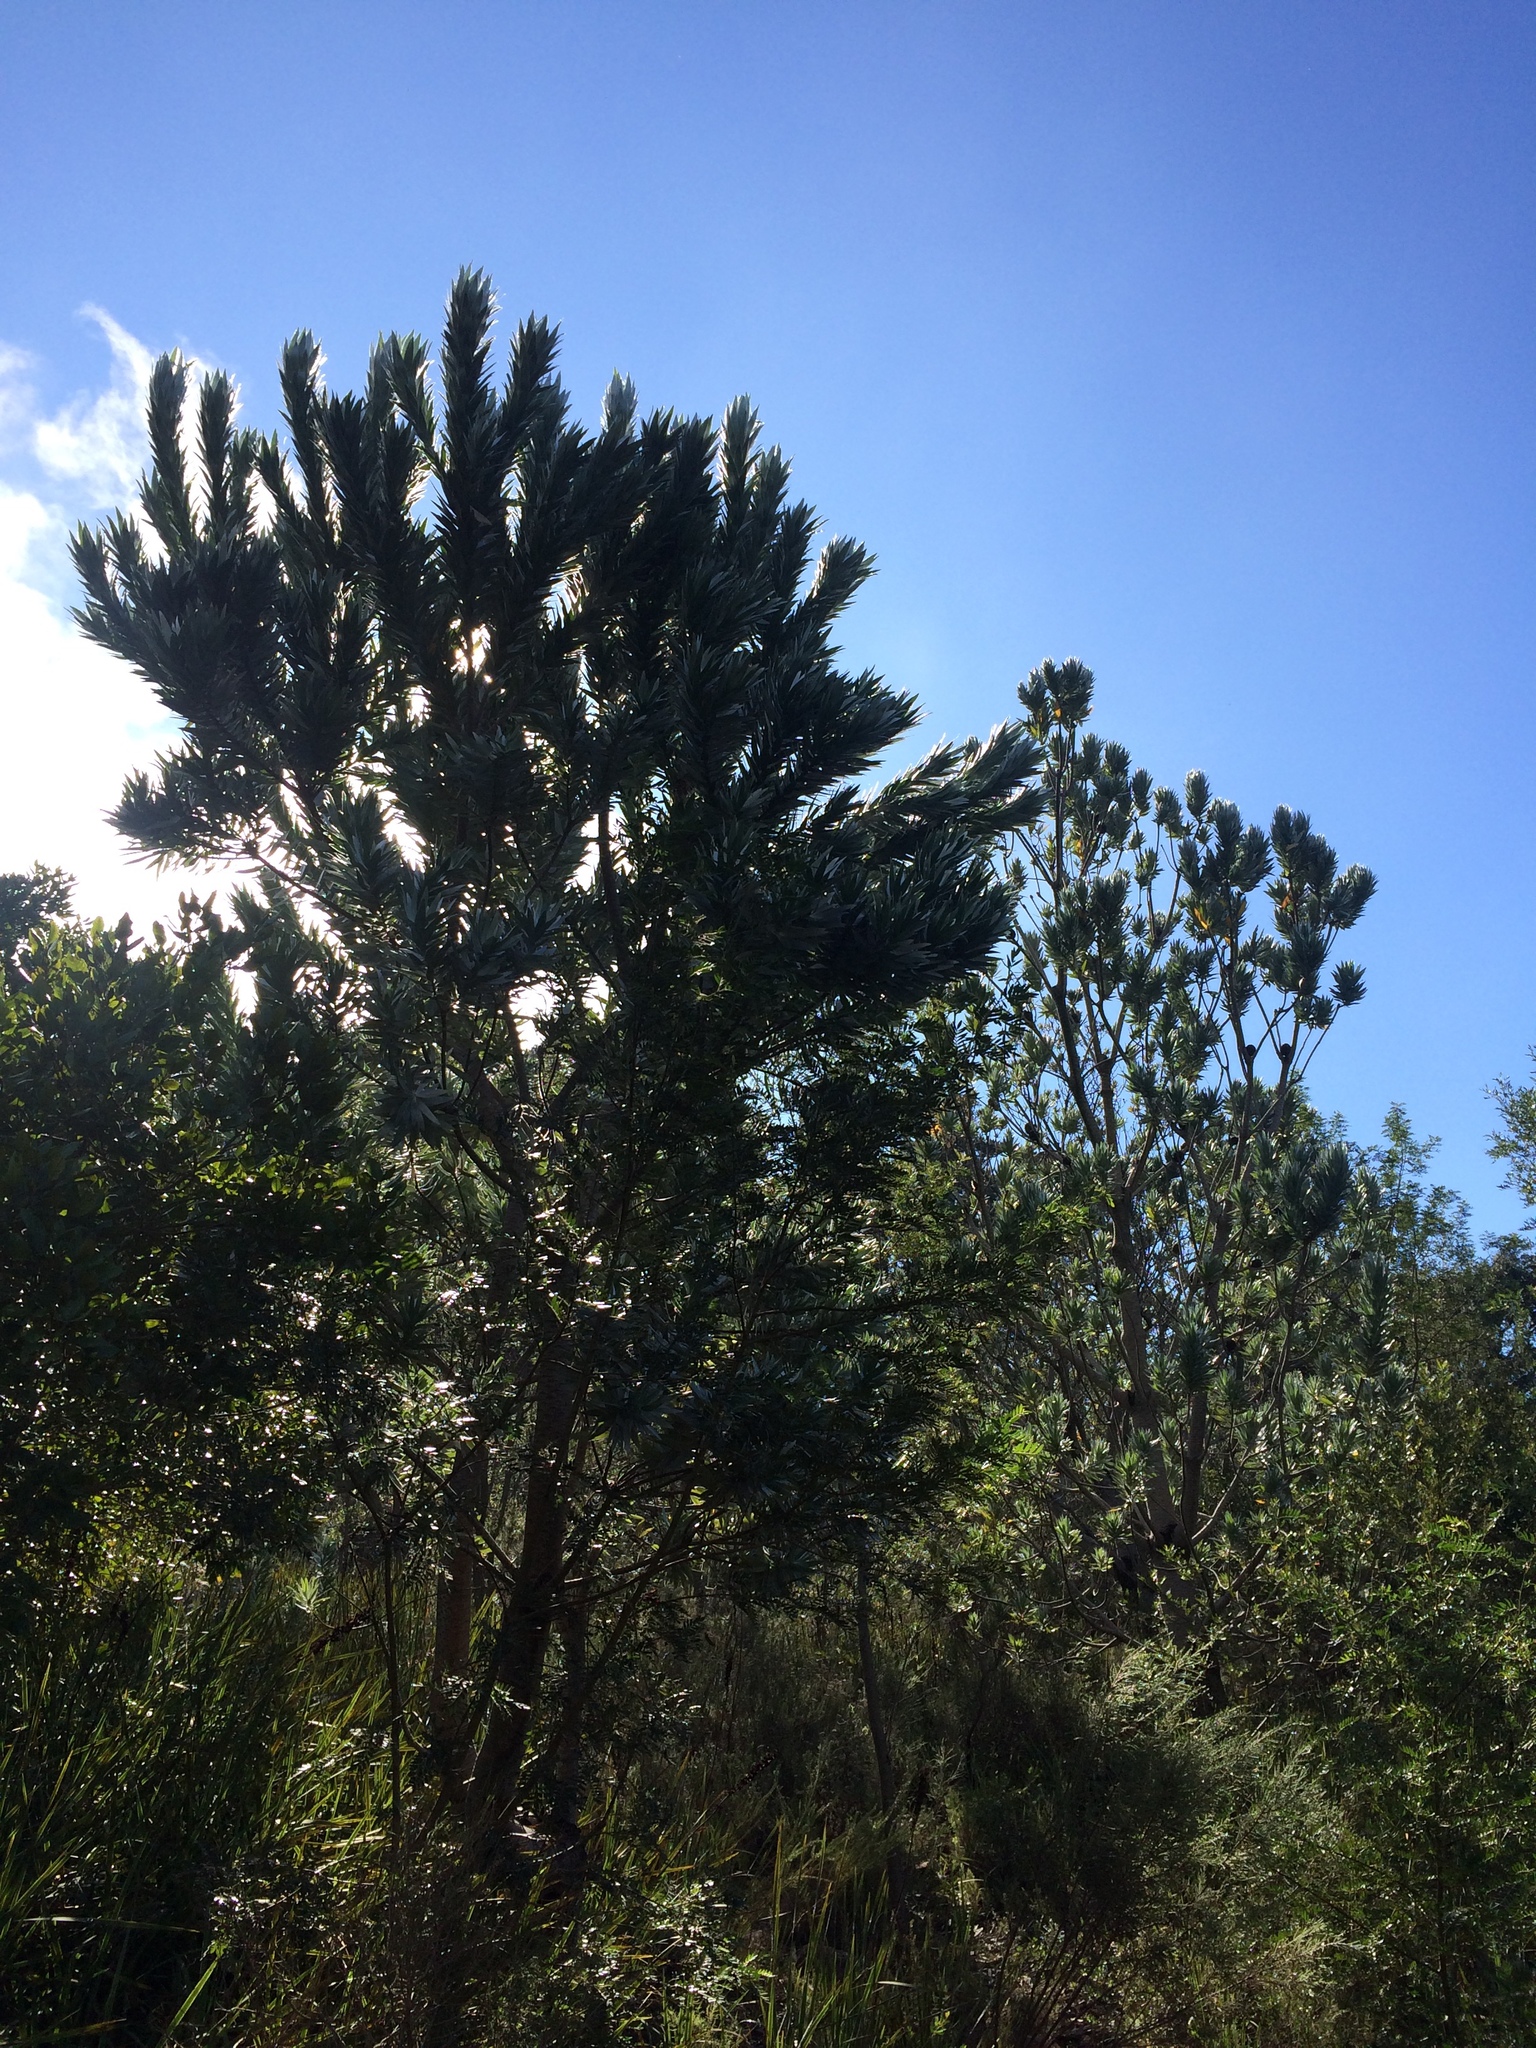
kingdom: Plantae
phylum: Tracheophyta
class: Magnoliopsida
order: Proteales
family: Proteaceae
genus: Leucadendron
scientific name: Leucadendron argenteum
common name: Cape silver tree
